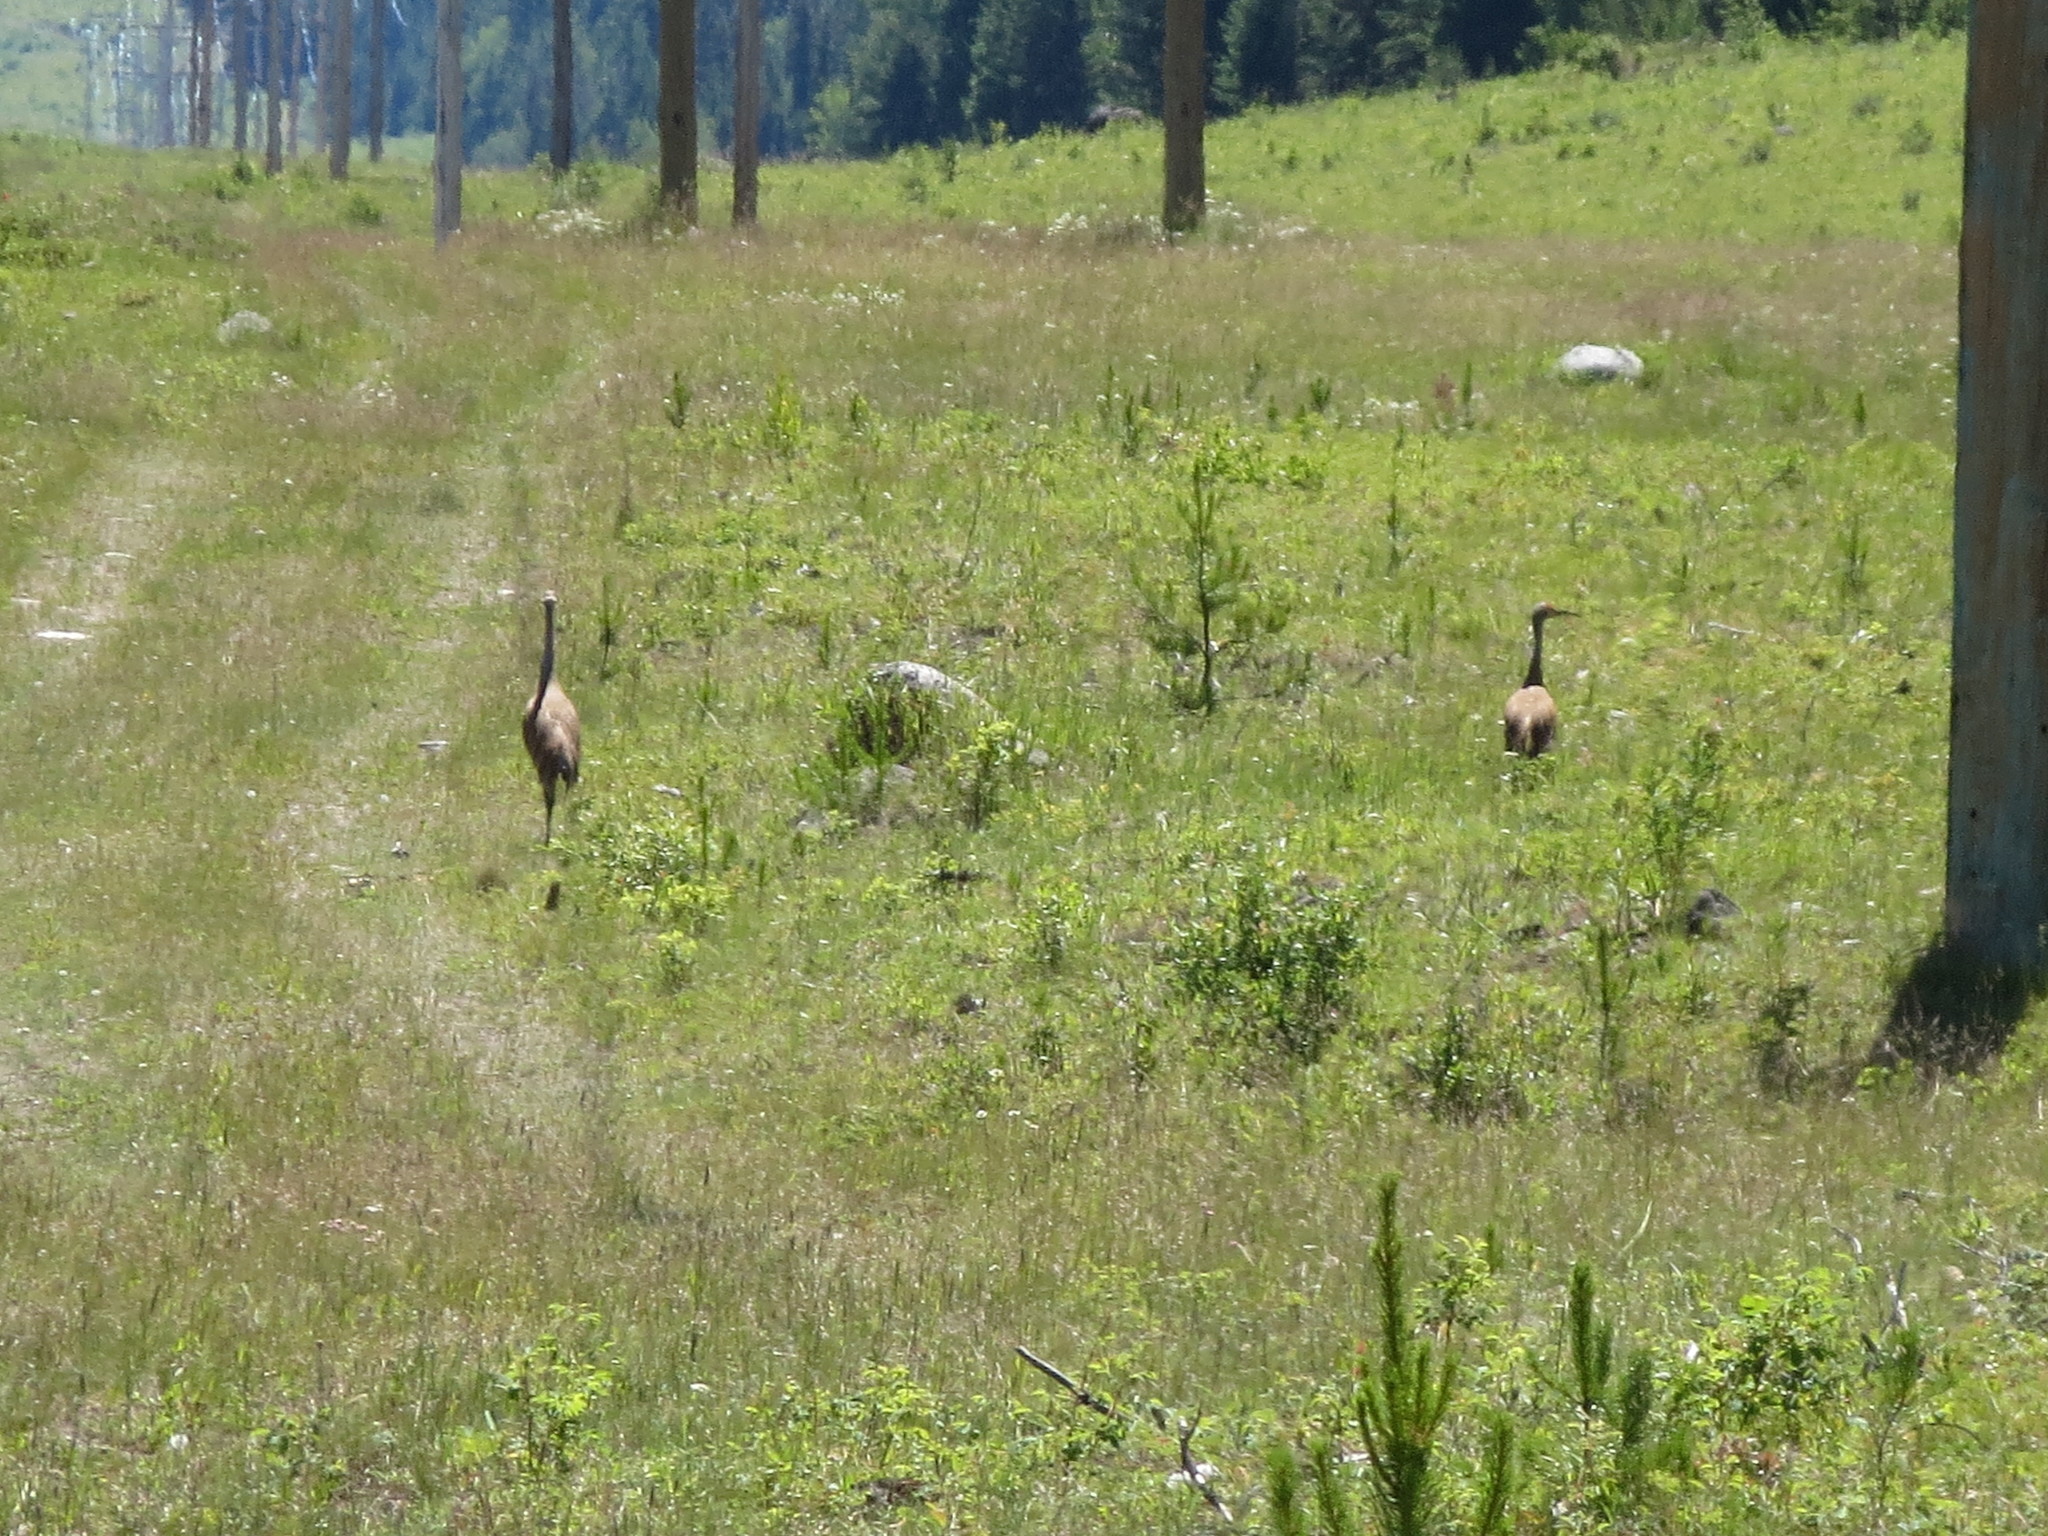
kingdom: Animalia
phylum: Chordata
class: Aves
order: Gruiformes
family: Gruidae
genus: Grus
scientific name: Grus canadensis
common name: Sandhill crane
